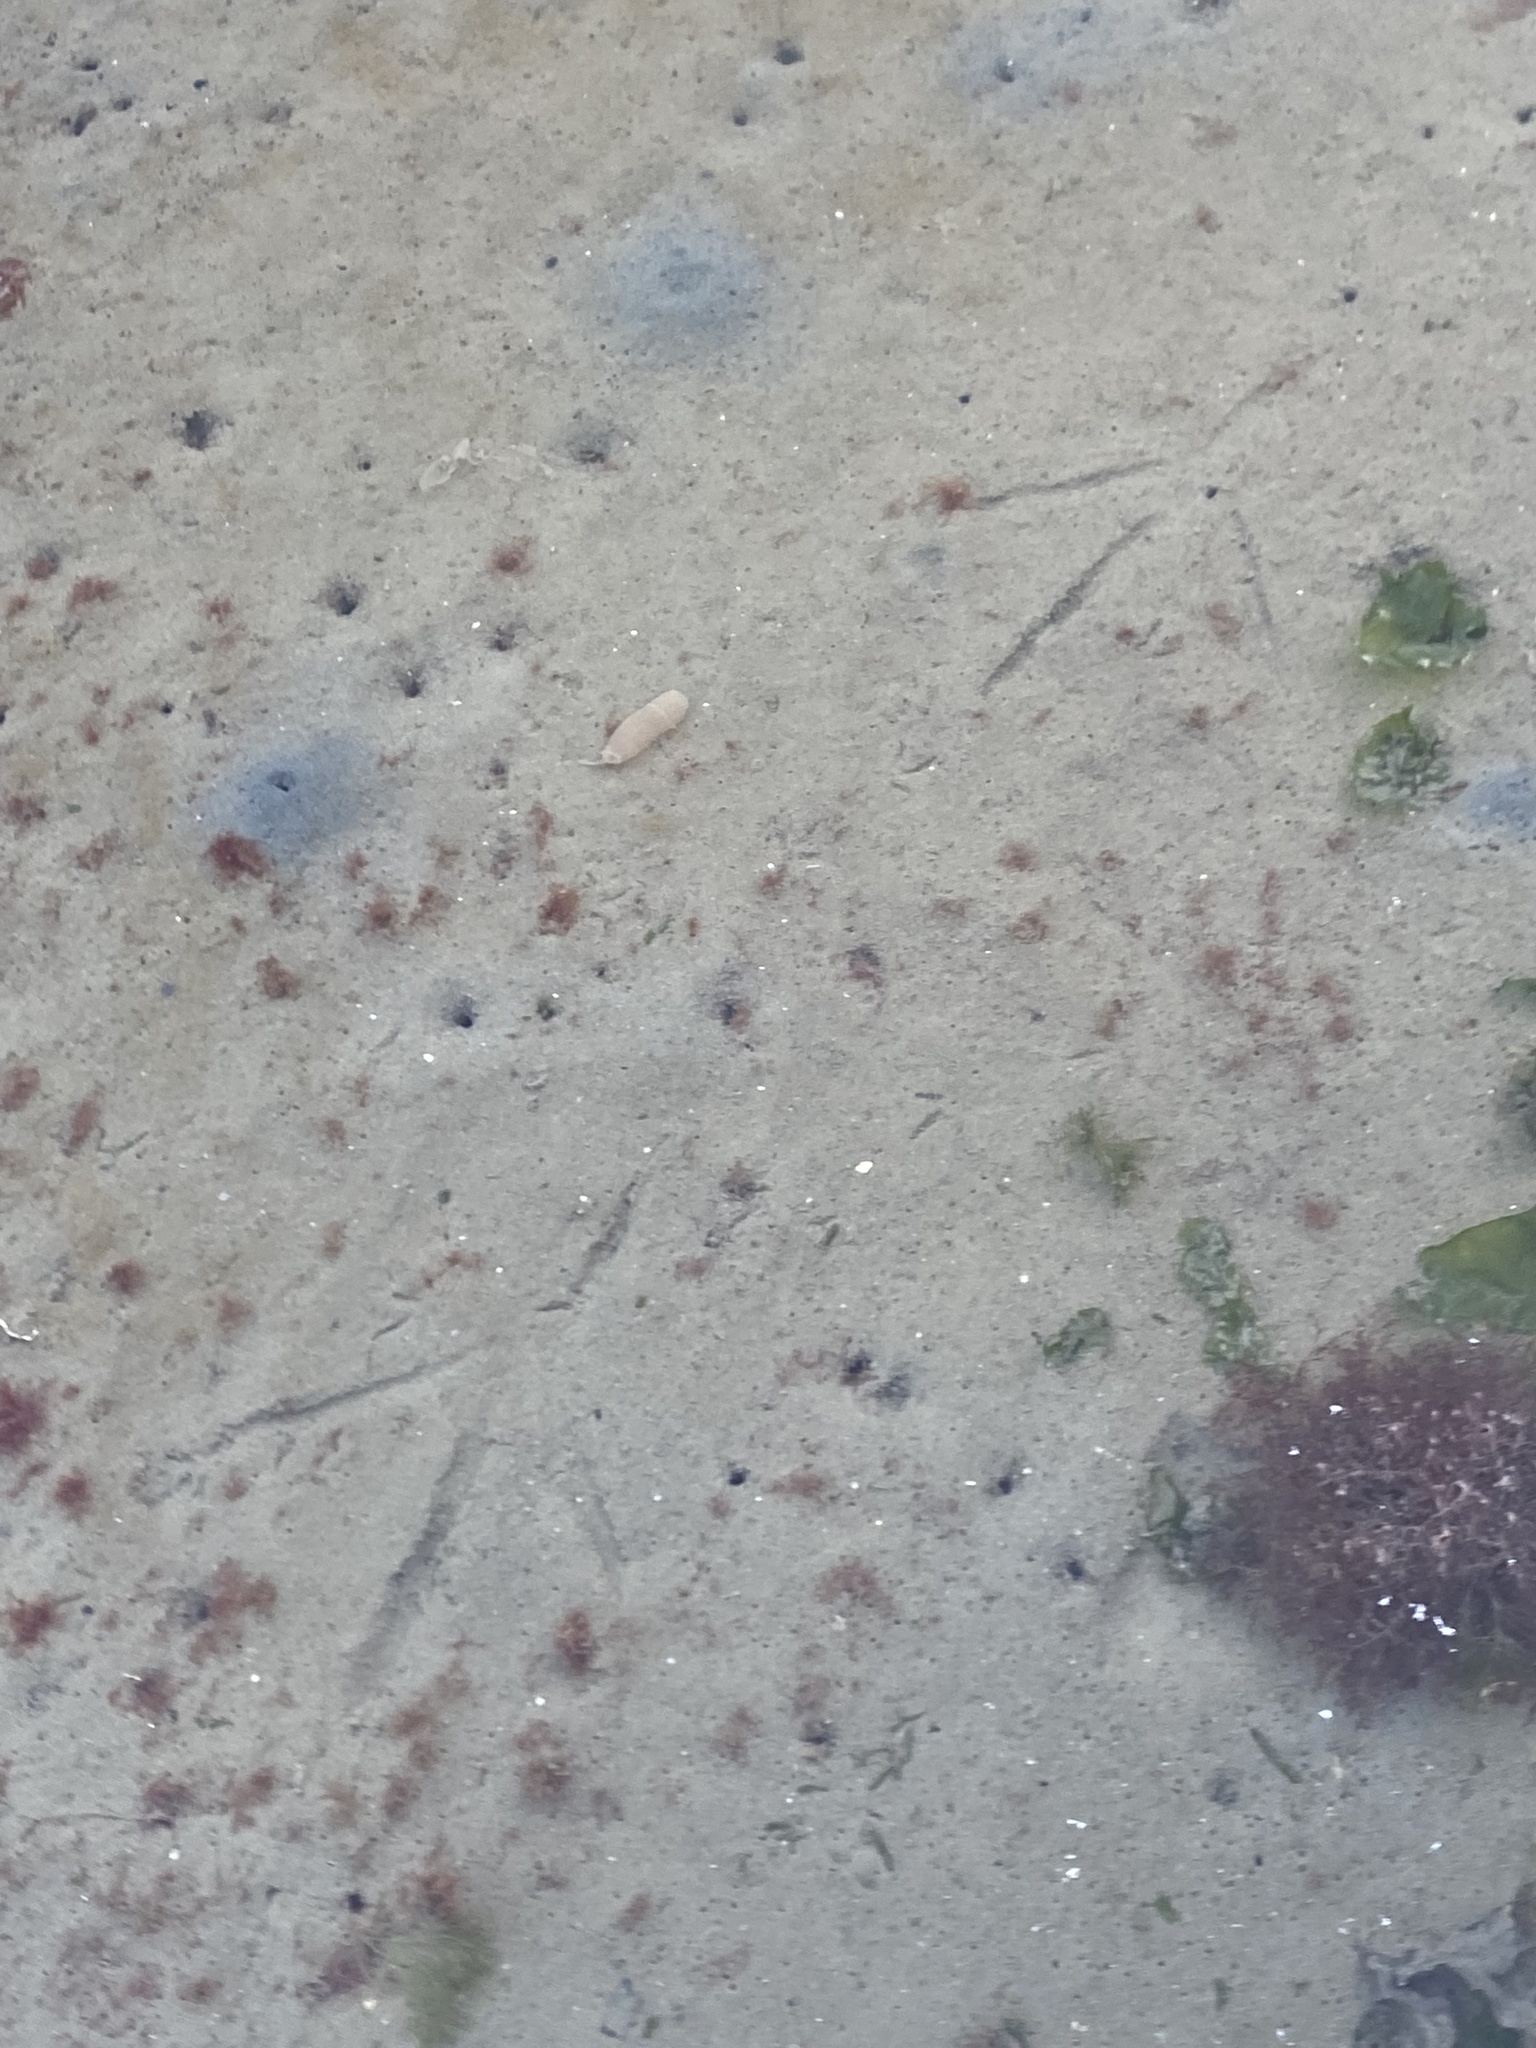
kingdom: Animalia
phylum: Chordata
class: Aves
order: Pelecaniformes
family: Ardeidae
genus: Ardea
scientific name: Ardea herodias
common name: Great blue heron
